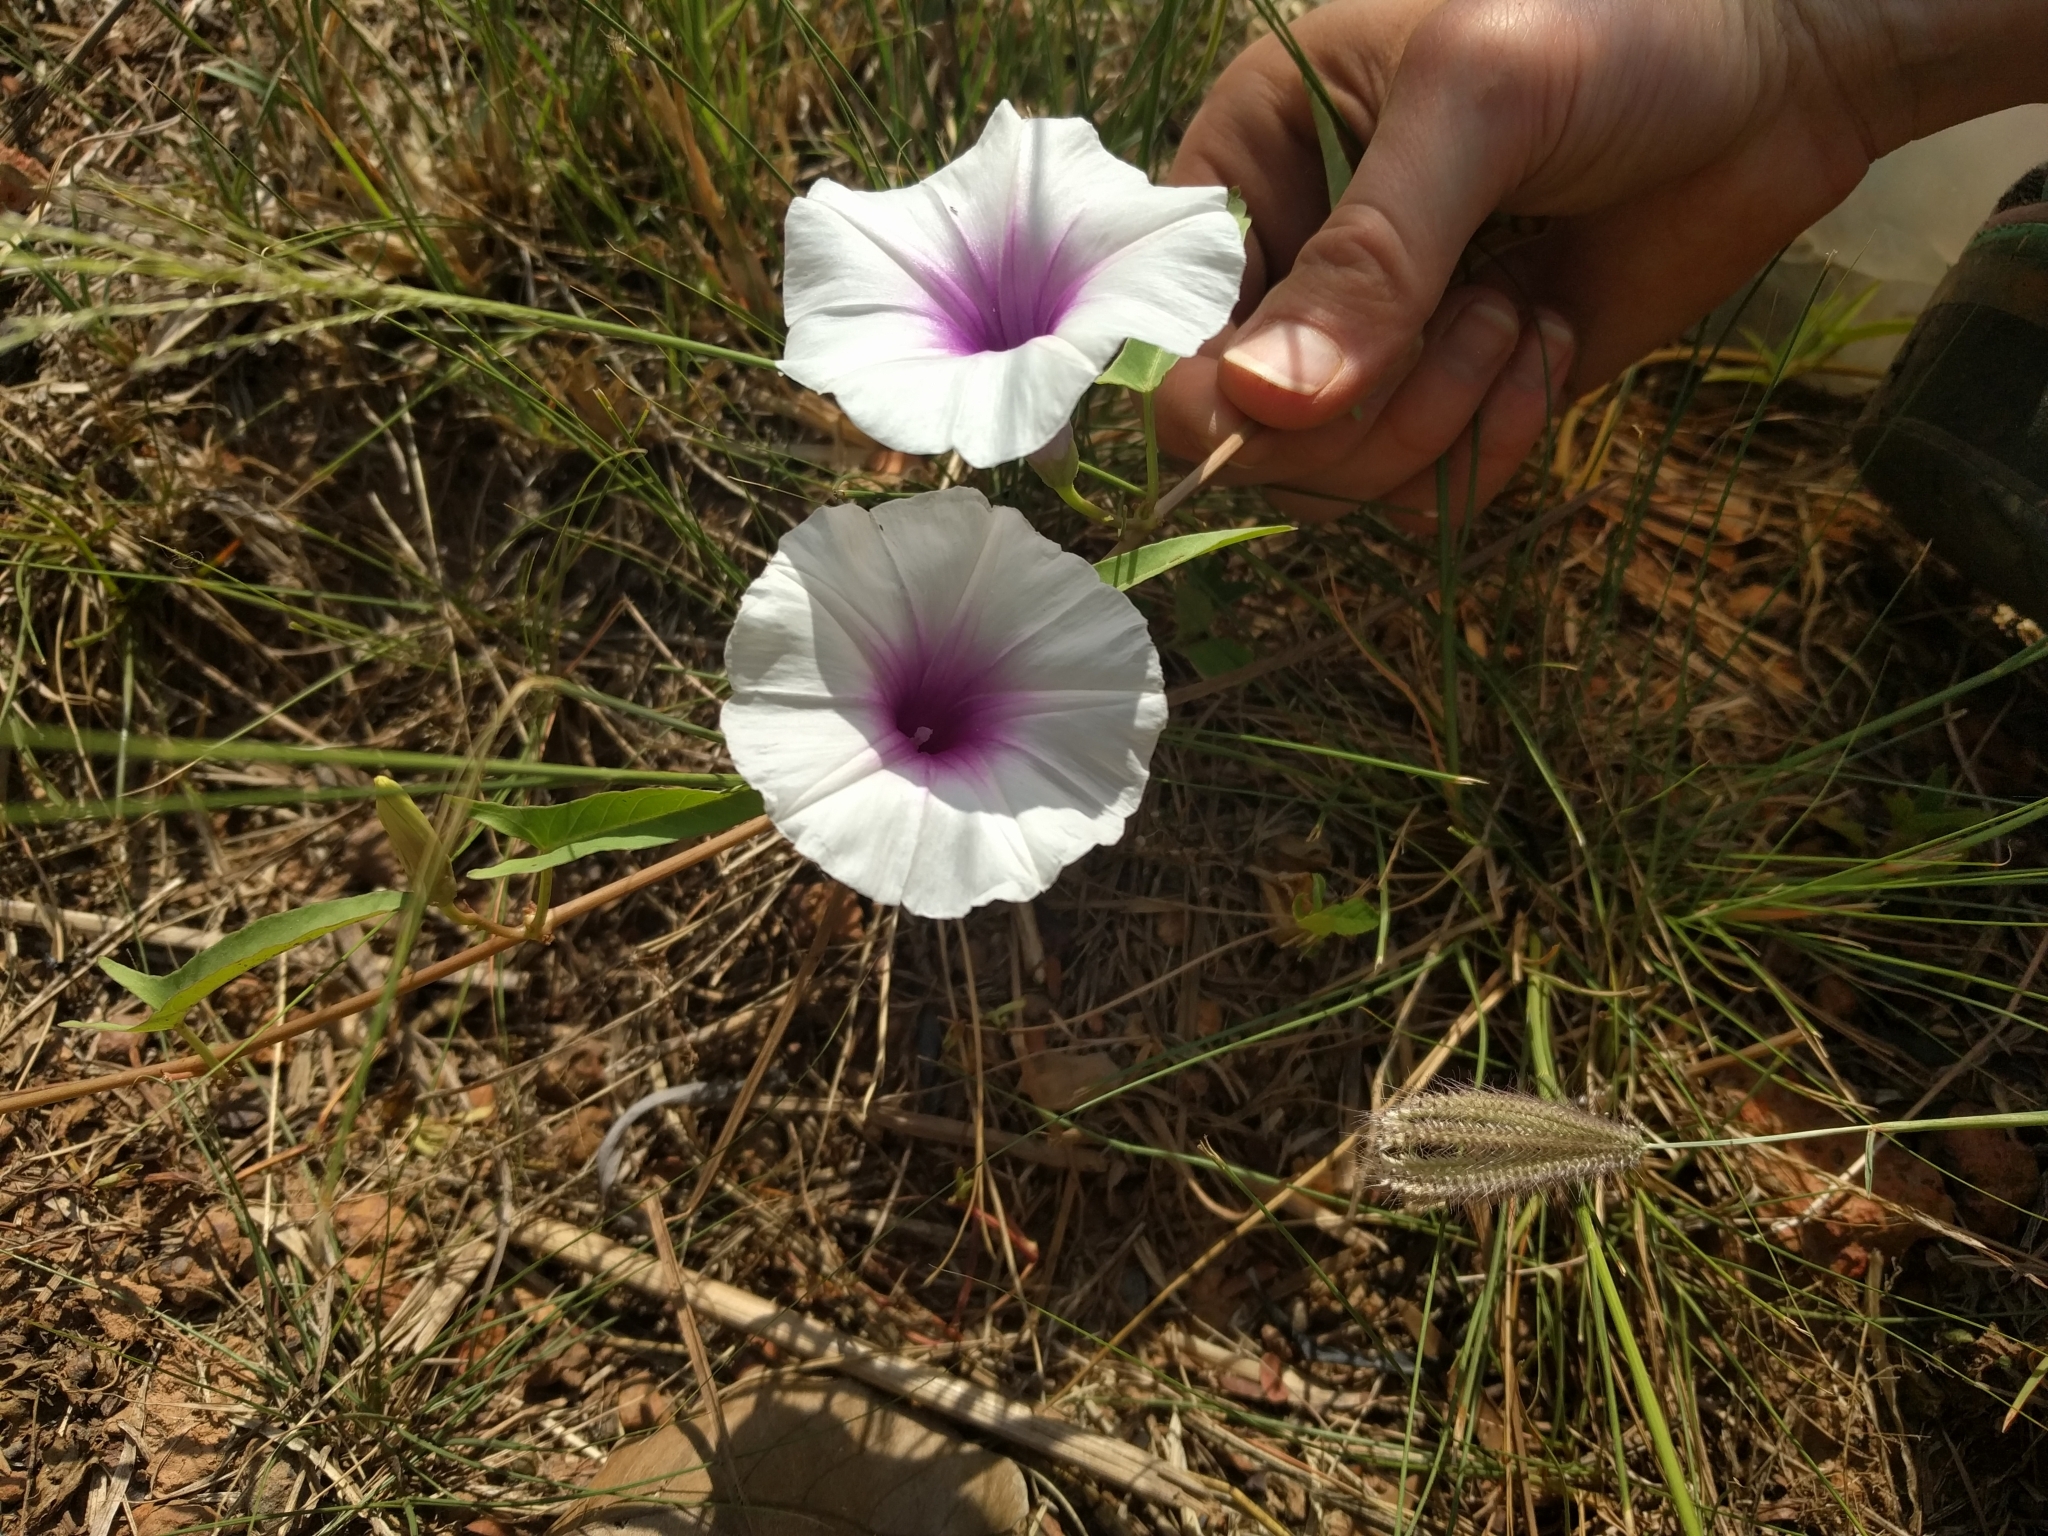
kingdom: Plantae
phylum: Tracheophyta
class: Magnoliopsida
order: Solanales
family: Convolvulaceae
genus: Ipomoea
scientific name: Ipomoea aquatica
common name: Swamp morning-glory
